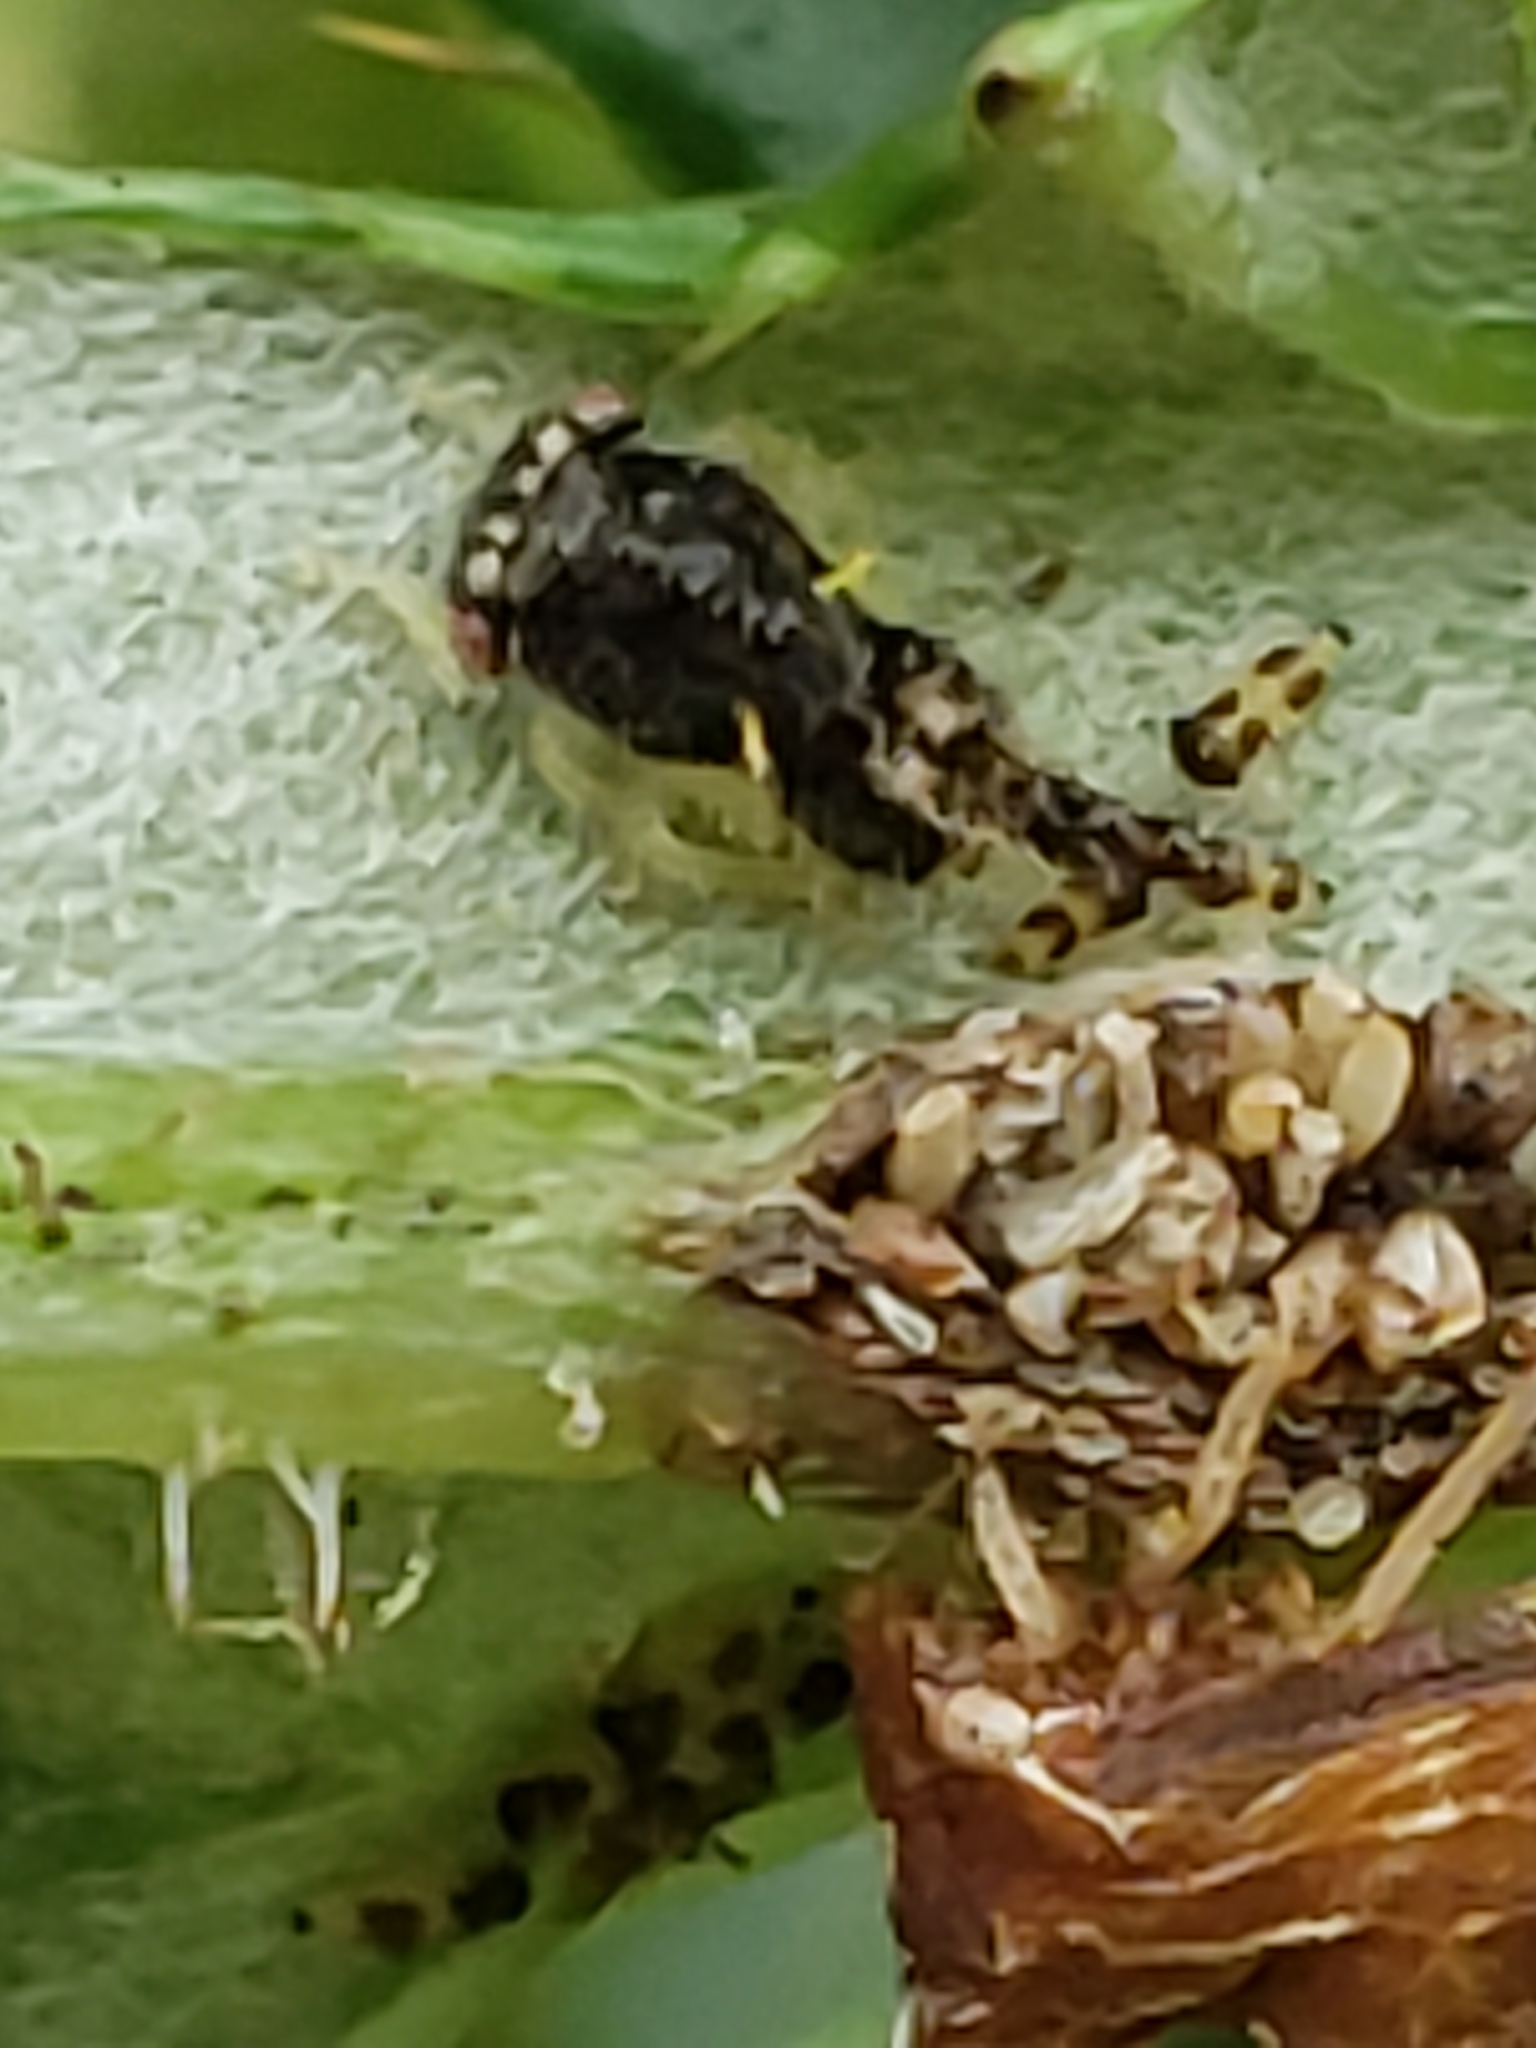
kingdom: Animalia
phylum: Arthropoda
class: Insecta
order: Hemiptera
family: Membracidae
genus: Entylia
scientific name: Entylia carinata
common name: Keeled treehopper
